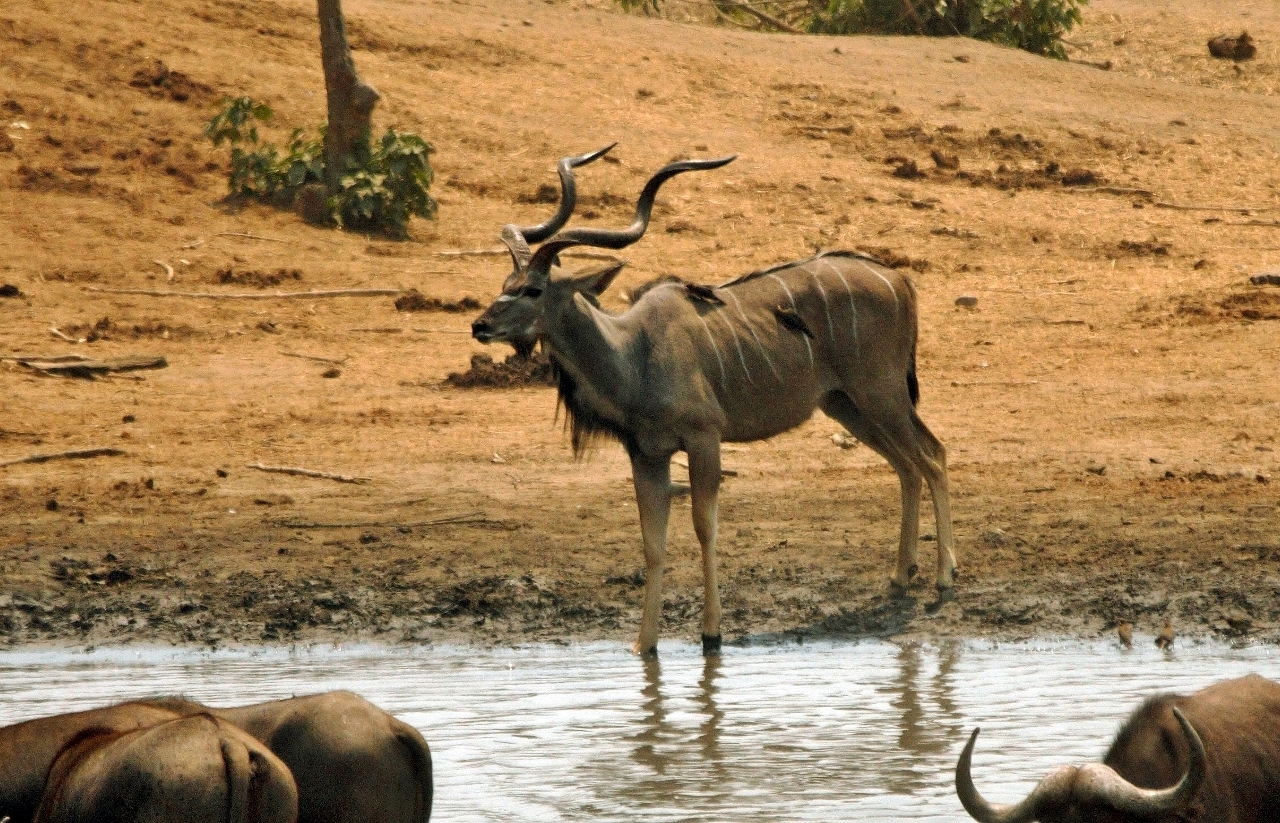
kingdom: Animalia
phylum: Chordata
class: Aves
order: Passeriformes
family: Buphagidae
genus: Buphagus
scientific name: Buphagus erythrorhynchus
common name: Red-billed oxpecker
